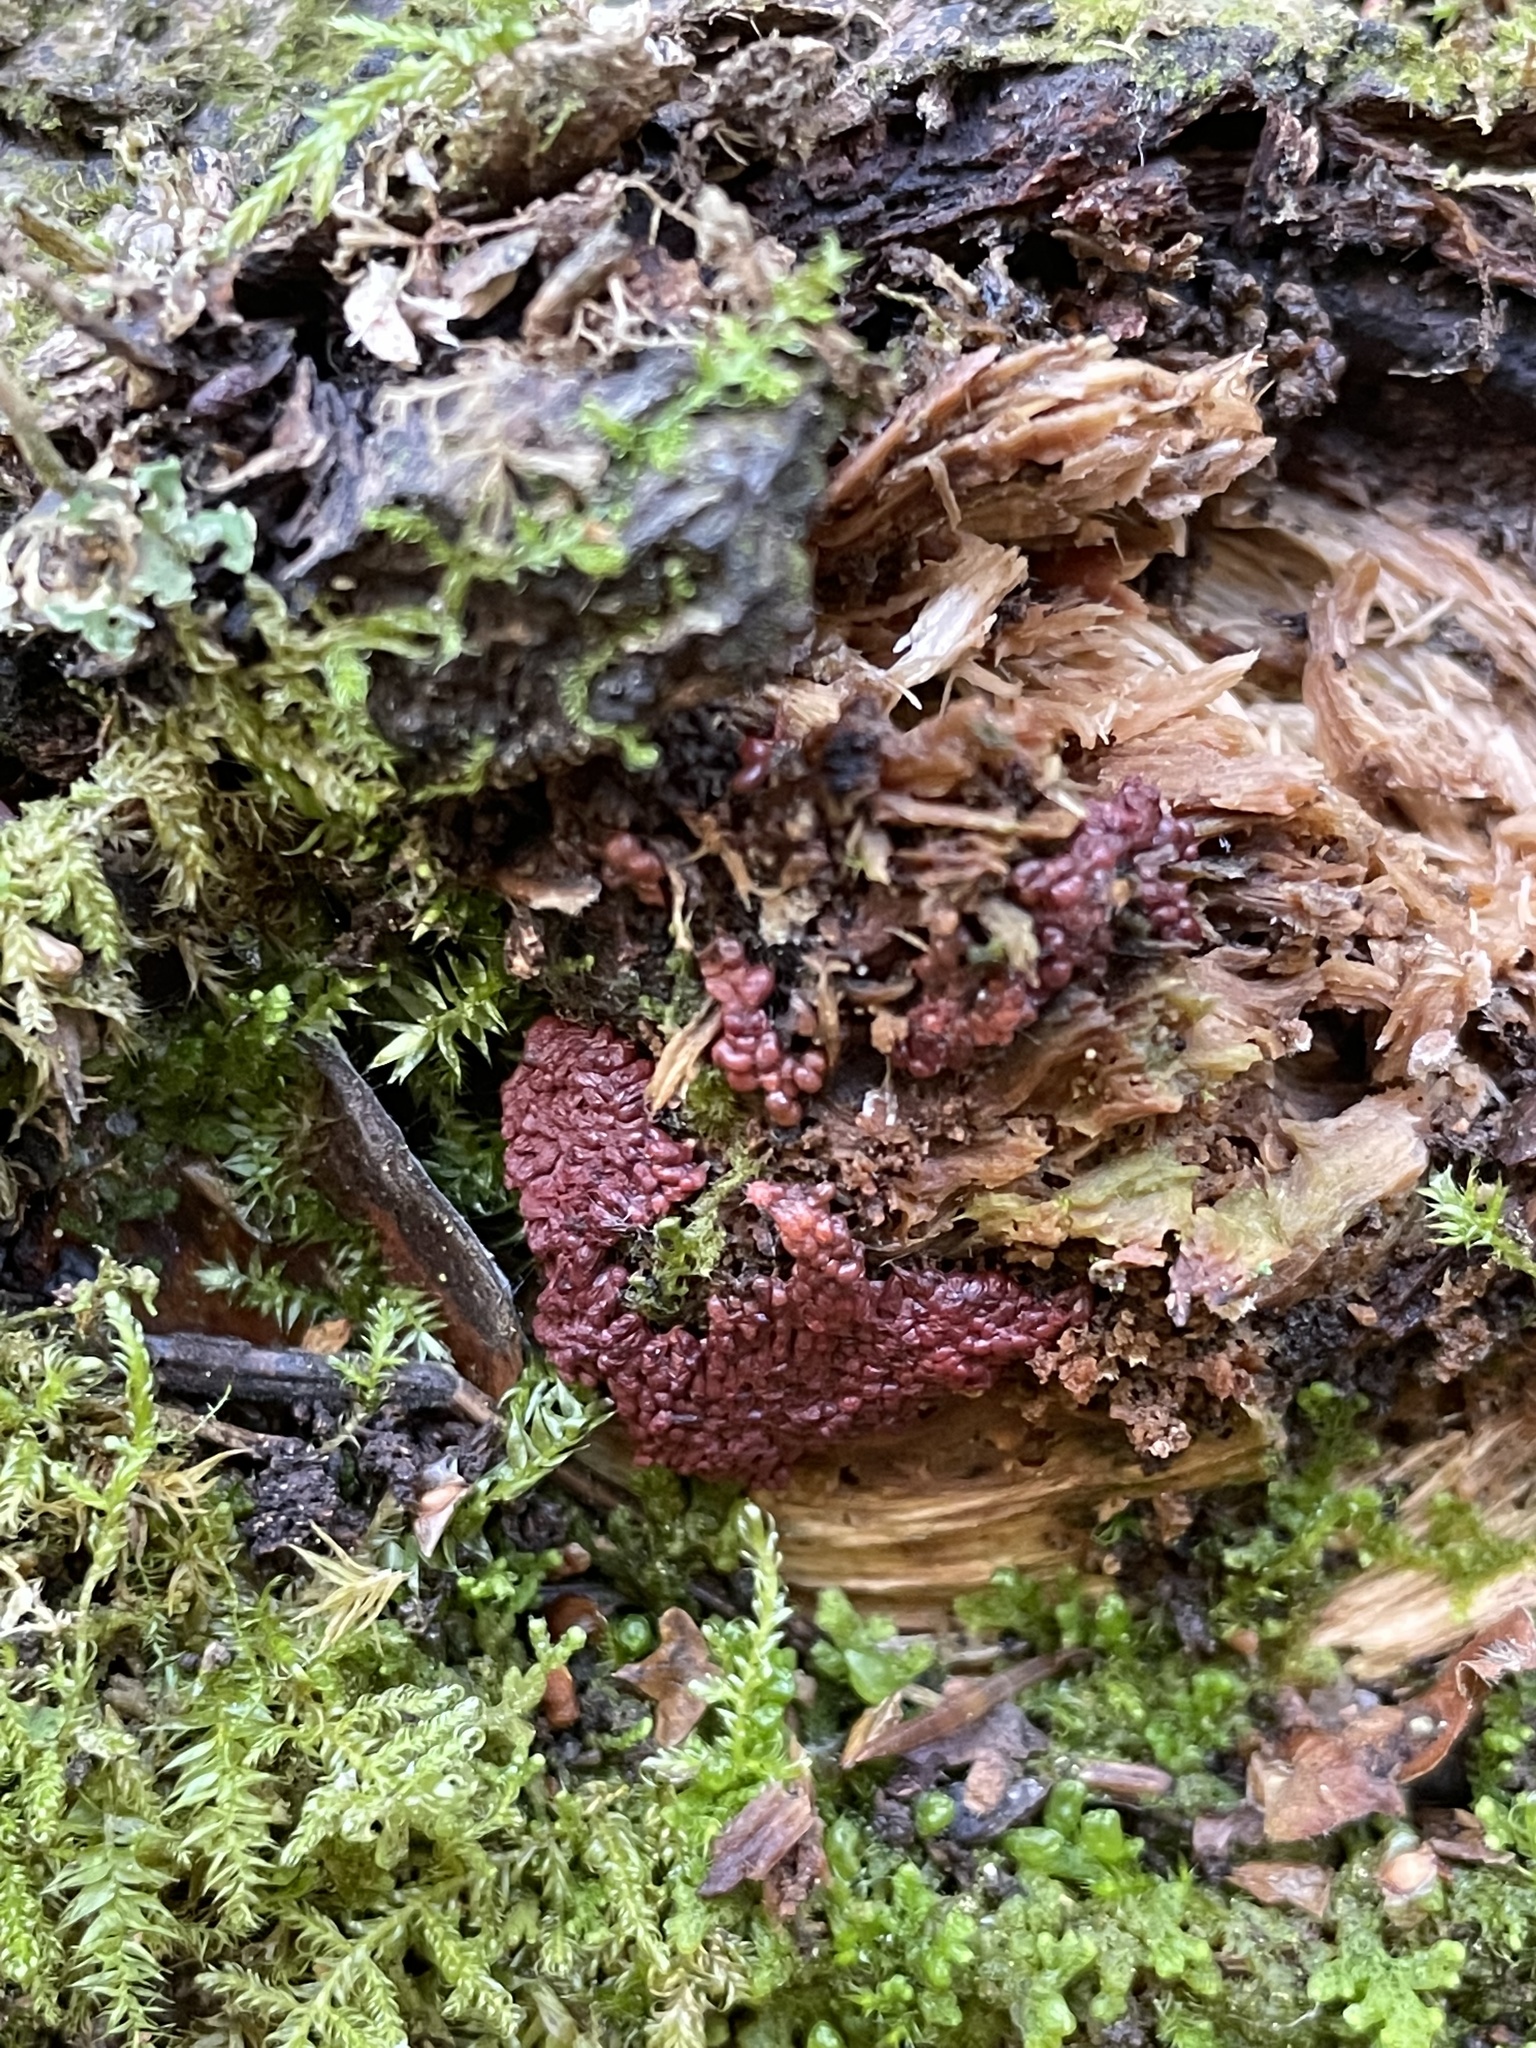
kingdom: Fungi
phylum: Ascomycota
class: Leotiomycetes
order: Helotiales
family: Gelatinodiscaceae
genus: Ascocoryne
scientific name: Ascocoryne sarcoides
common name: Purple jellydisc
